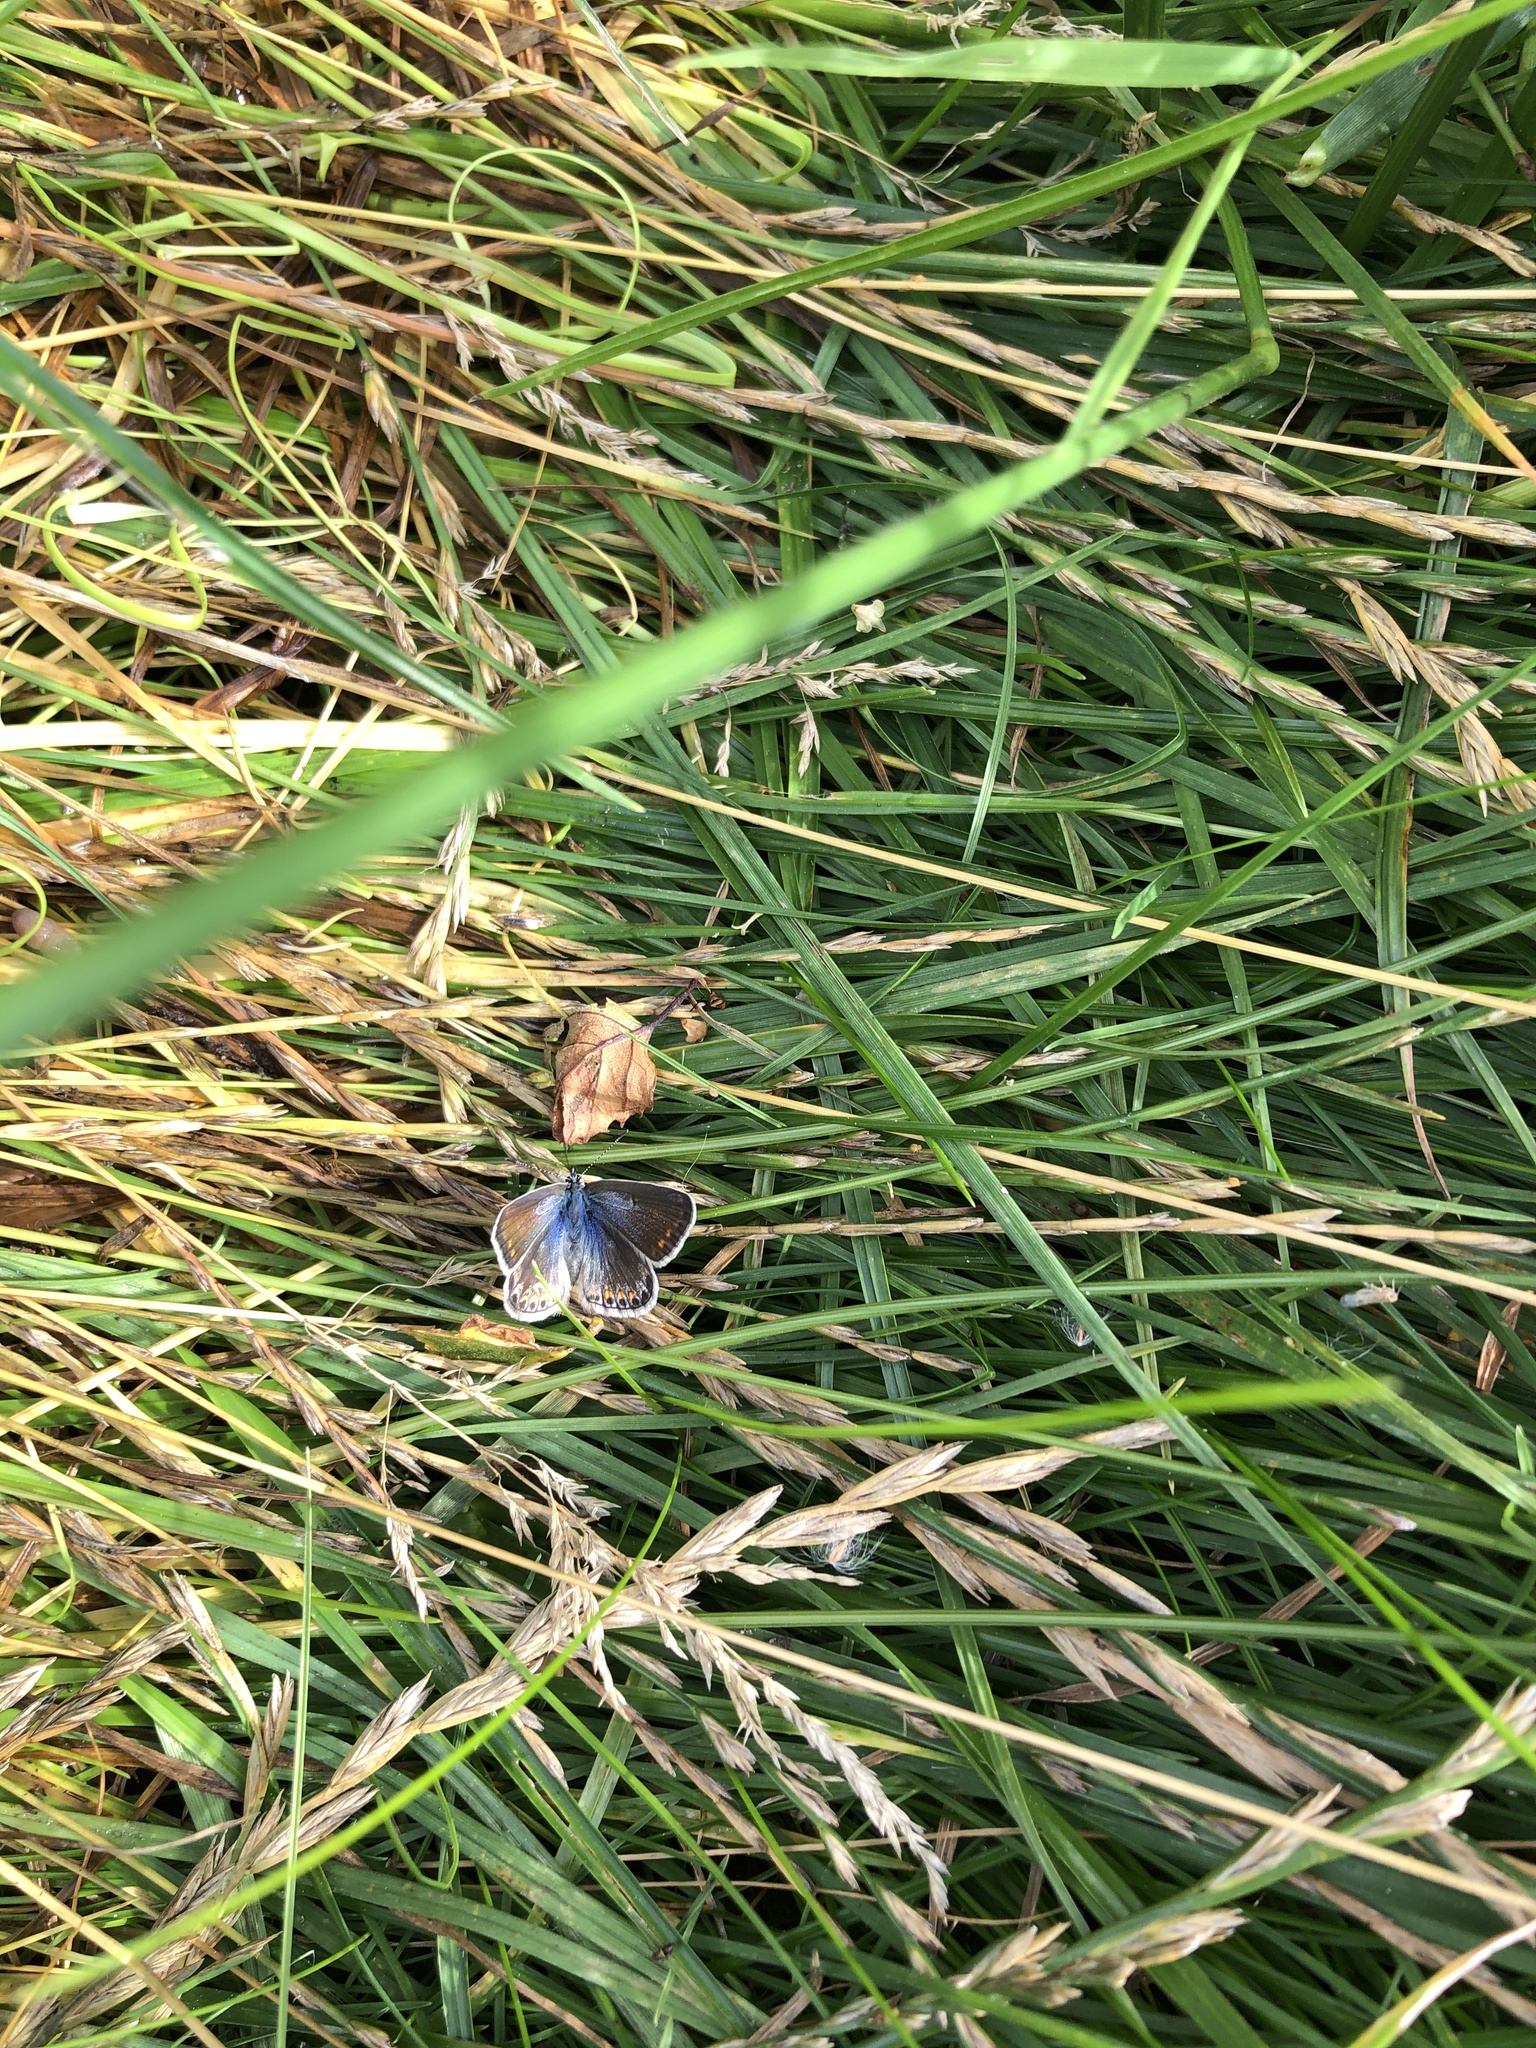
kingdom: Animalia
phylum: Arthropoda
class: Insecta
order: Lepidoptera
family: Lycaenidae
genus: Polyommatus
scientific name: Polyommatus icarus
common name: Common blue
